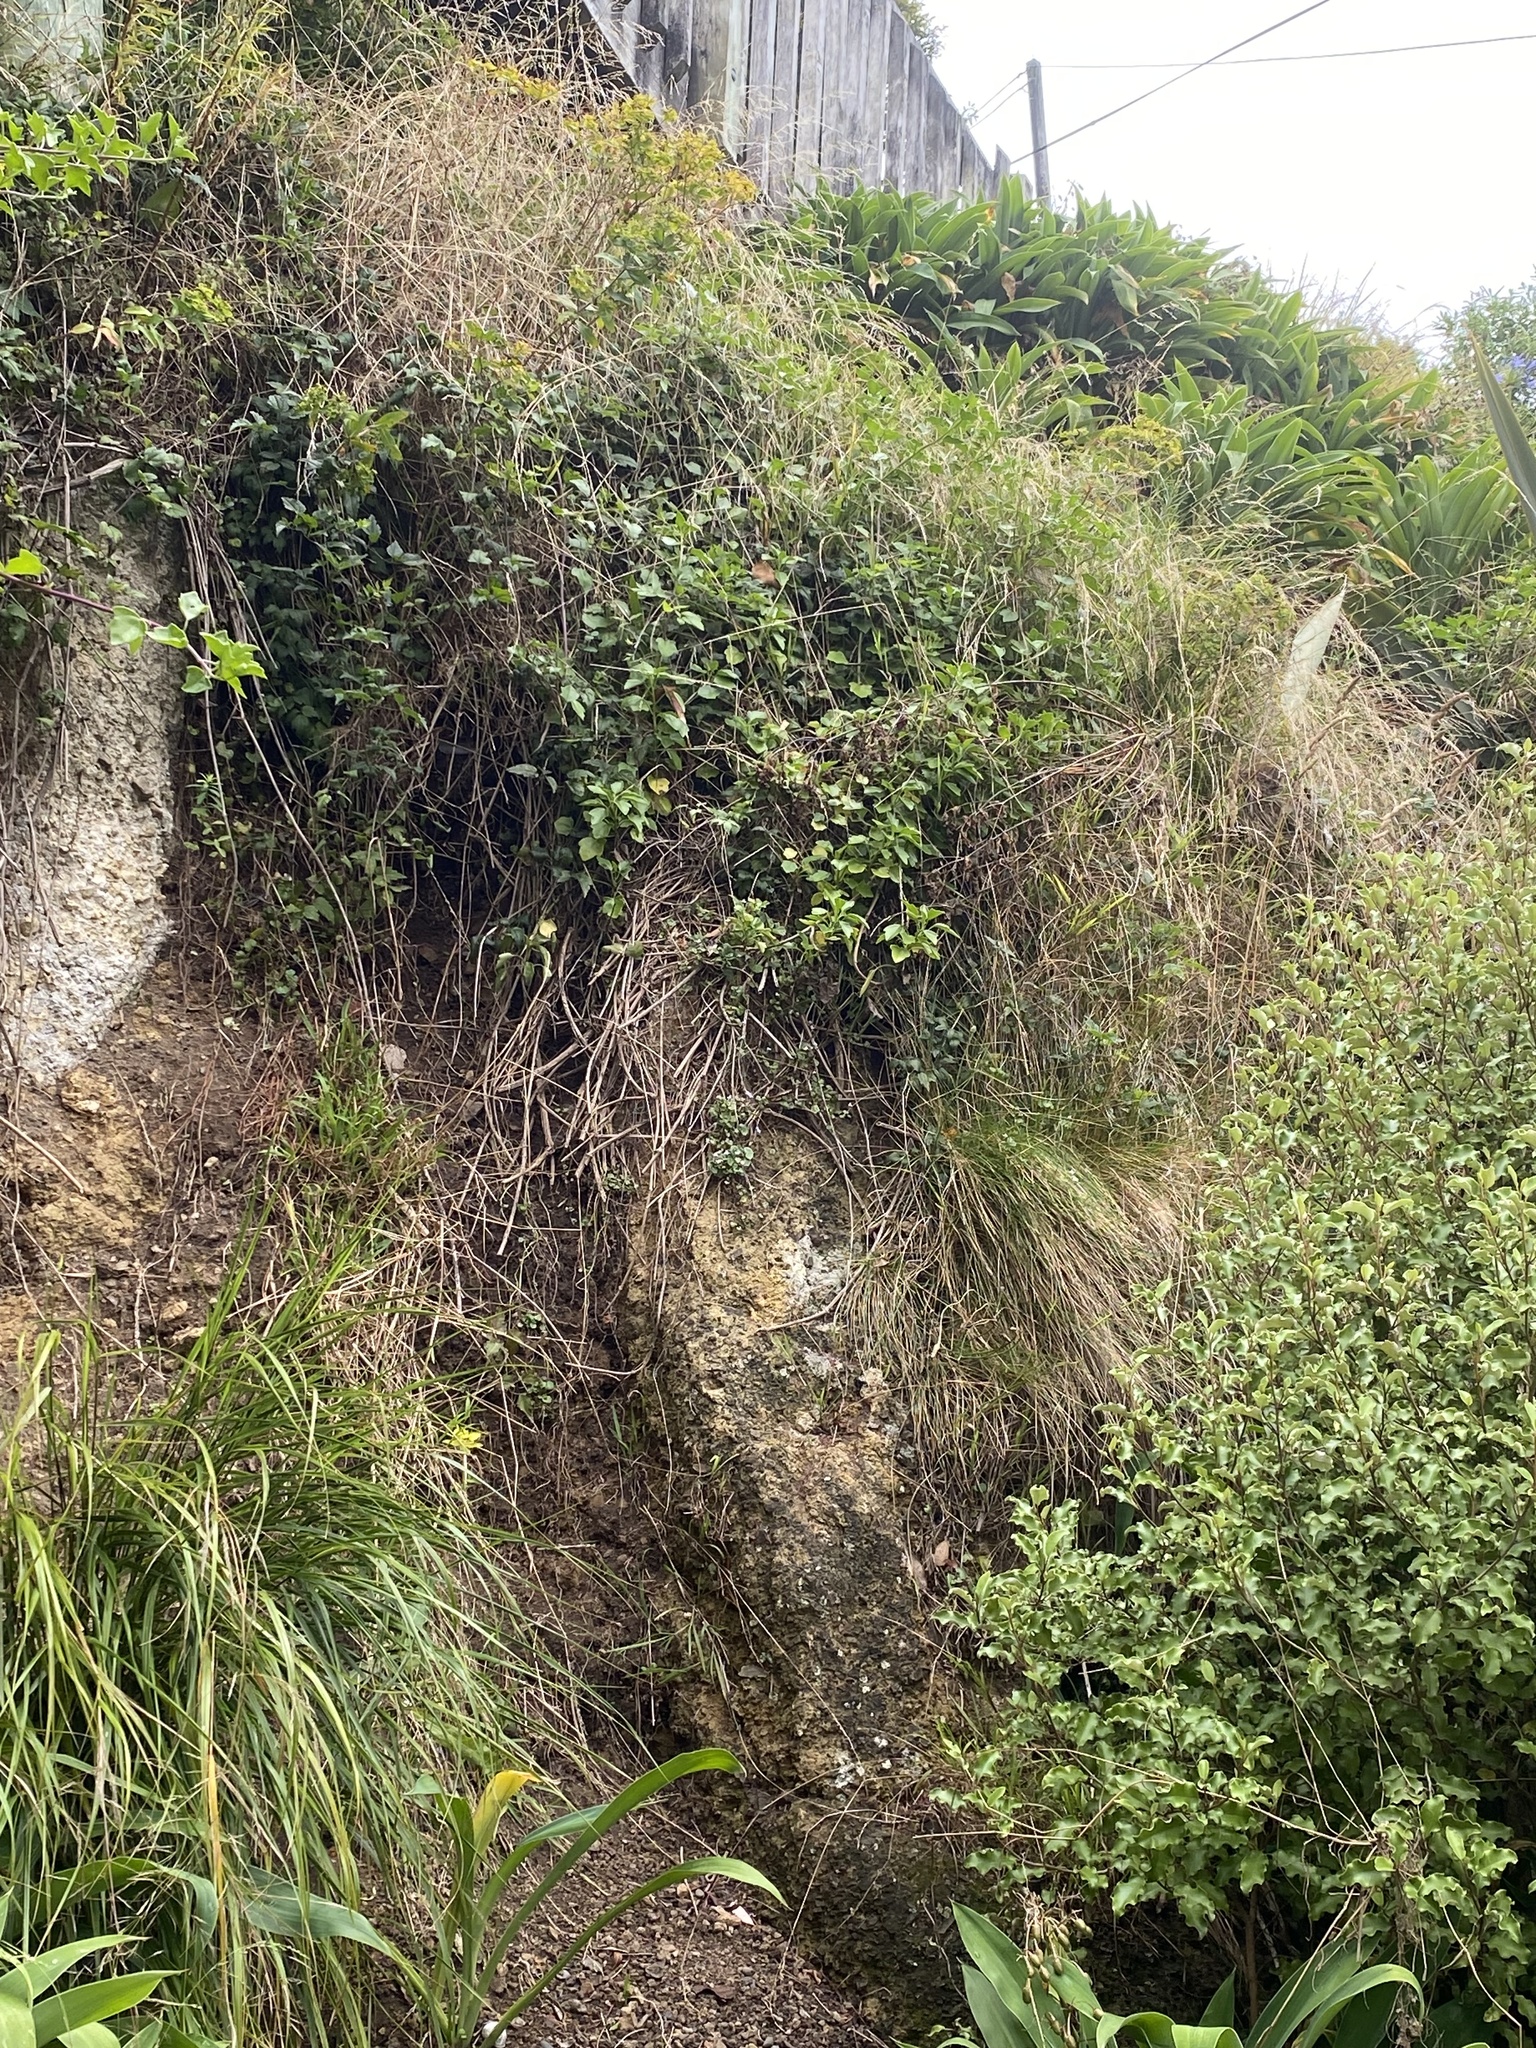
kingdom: Plantae
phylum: Tracheophyta
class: Magnoliopsida
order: Ranunculales
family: Ranunculaceae
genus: Clematis
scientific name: Clematis vitalba
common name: Evergreen clematis
